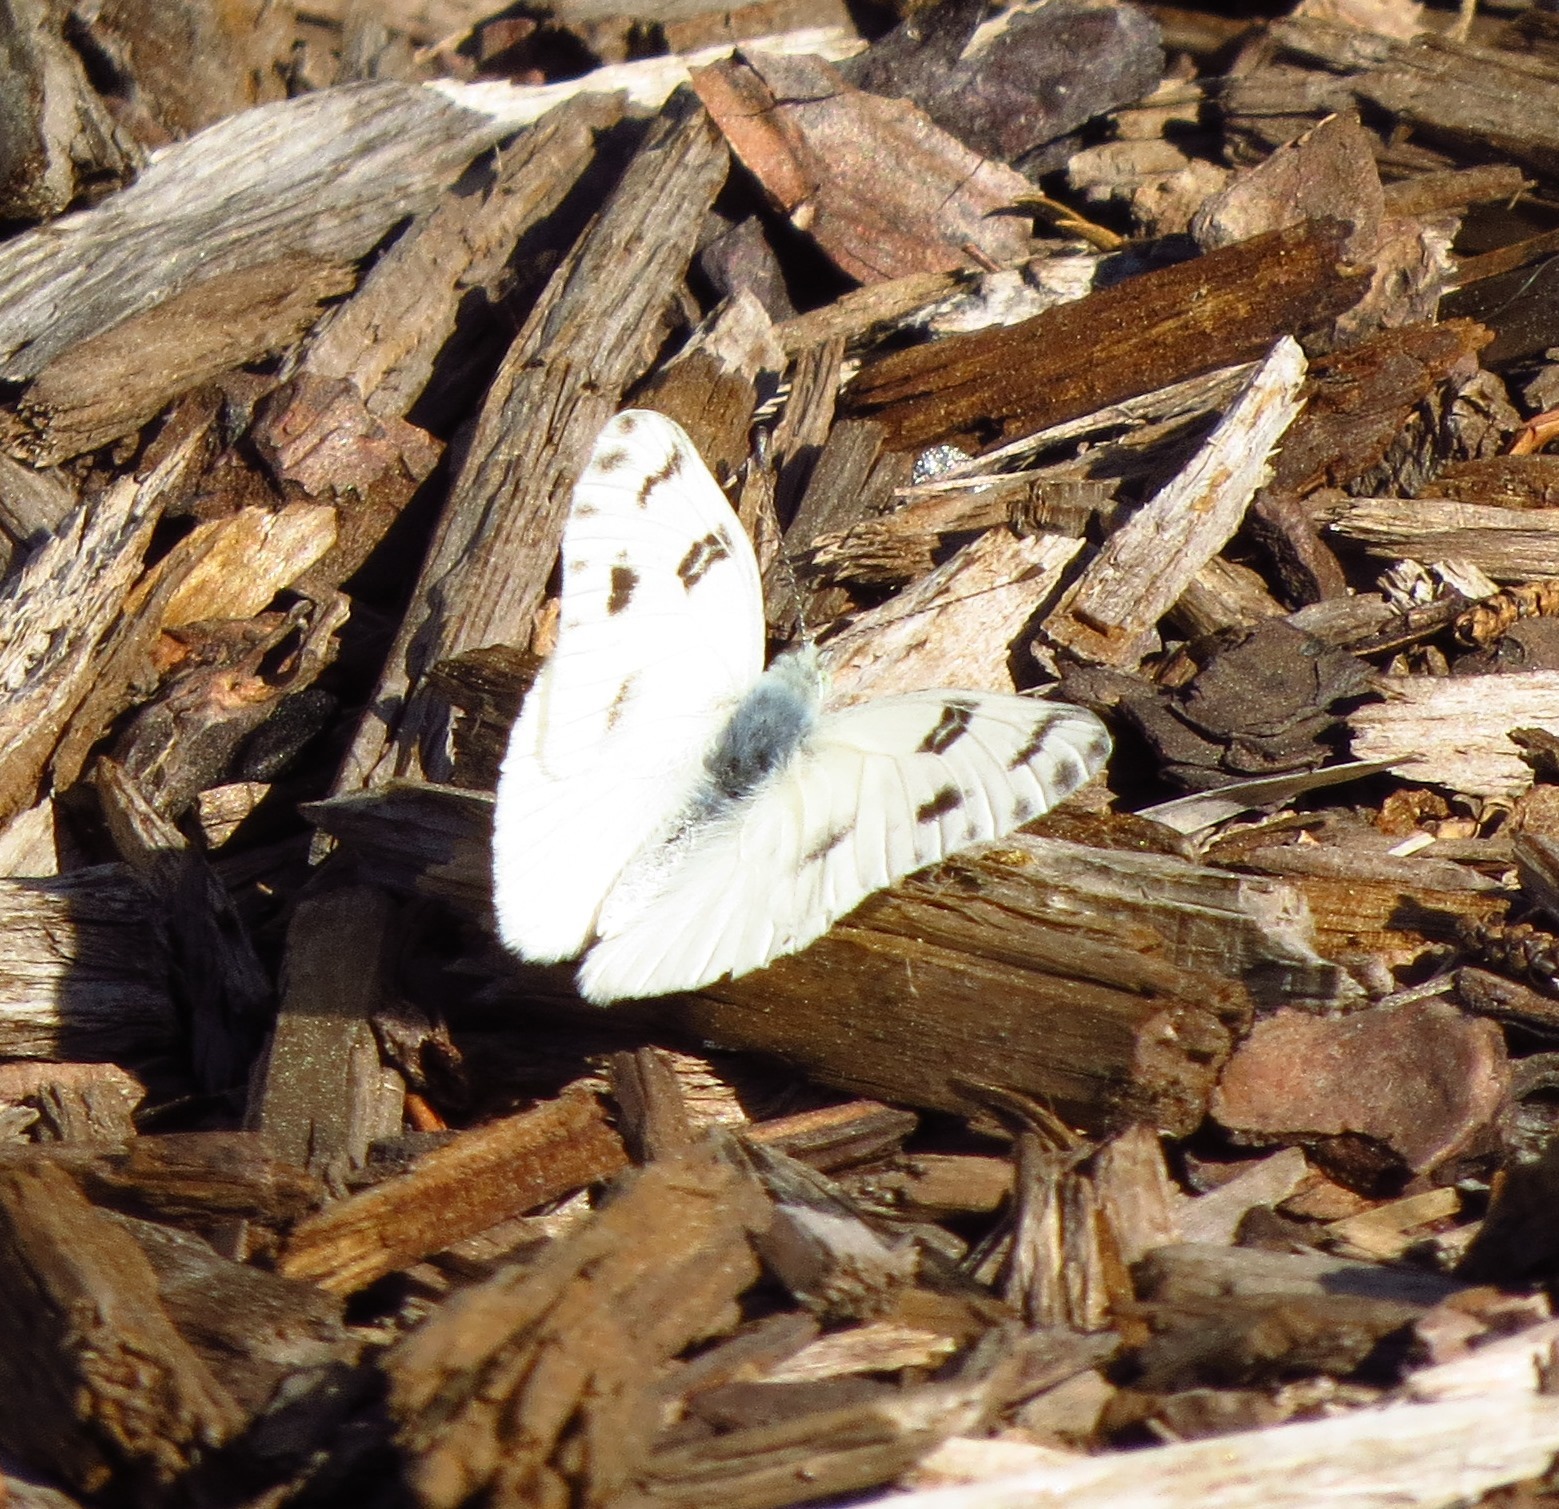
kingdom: Animalia
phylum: Arthropoda
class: Insecta
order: Lepidoptera
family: Pieridae
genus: Pontia
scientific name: Pontia protodice
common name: Checkered white
